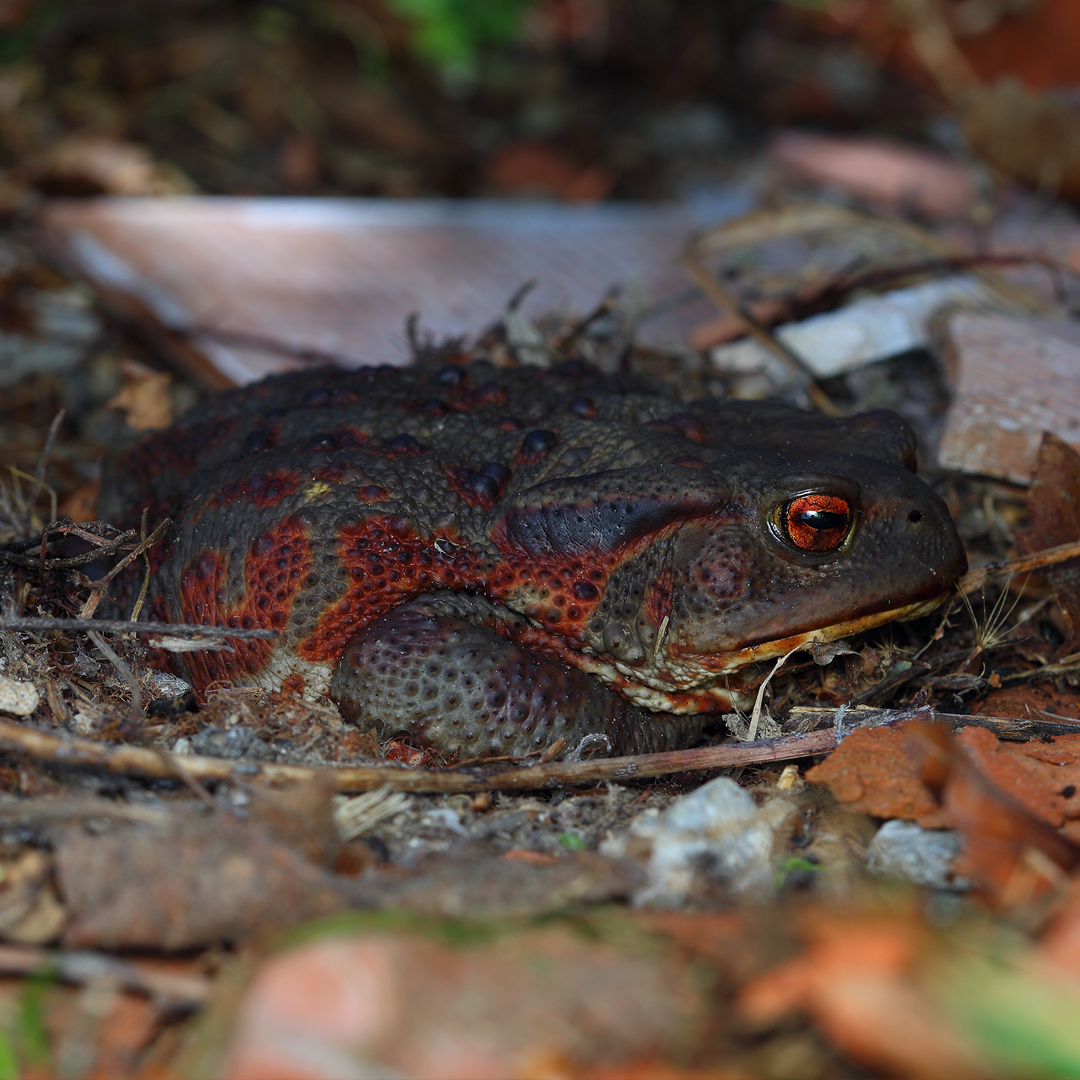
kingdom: Animalia
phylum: Chordata
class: Amphibia
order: Anura
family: Bufonidae
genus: Bufo
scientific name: Bufo bufo
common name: Common toad
